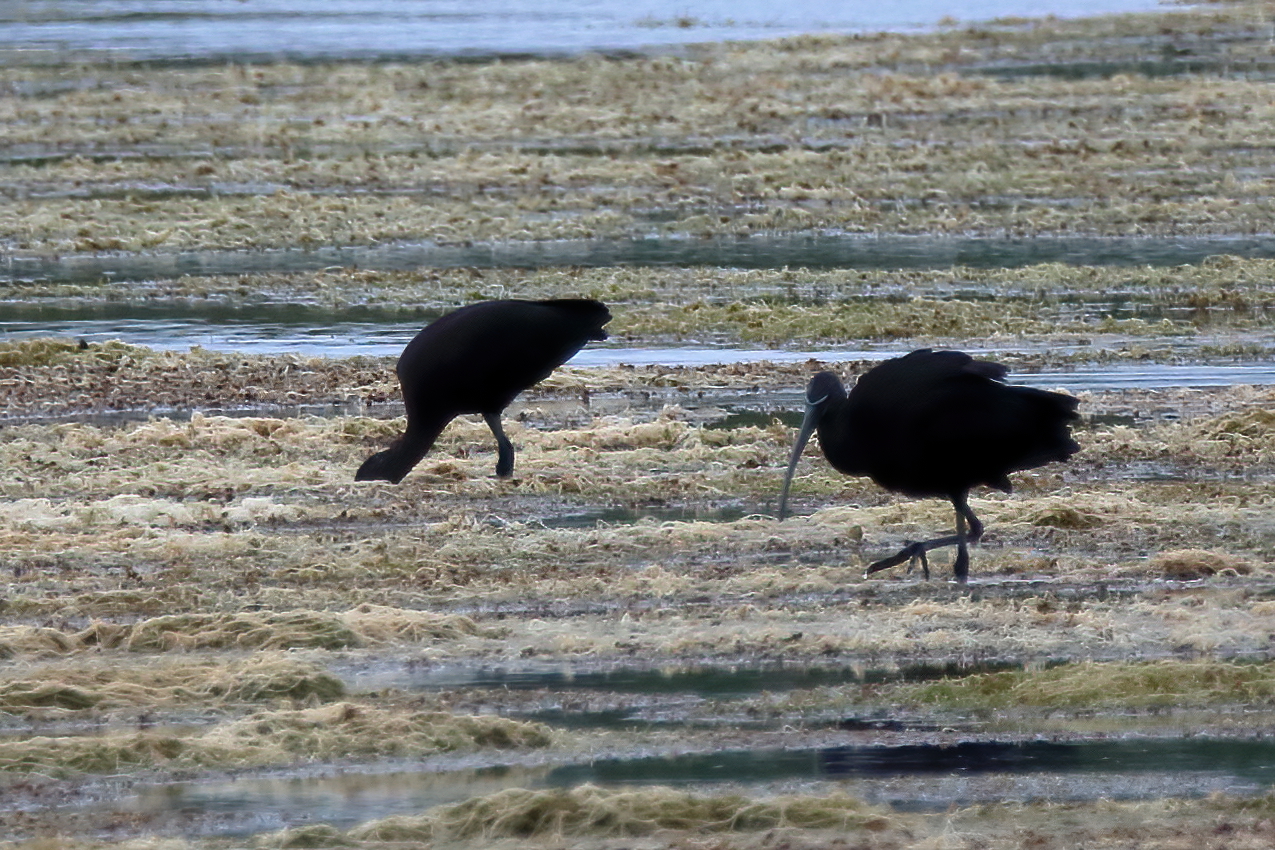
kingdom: Animalia
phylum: Chordata
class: Aves
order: Pelecaniformes
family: Threskiornithidae
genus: Plegadis
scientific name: Plegadis falcinellus
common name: Glossy ibis
